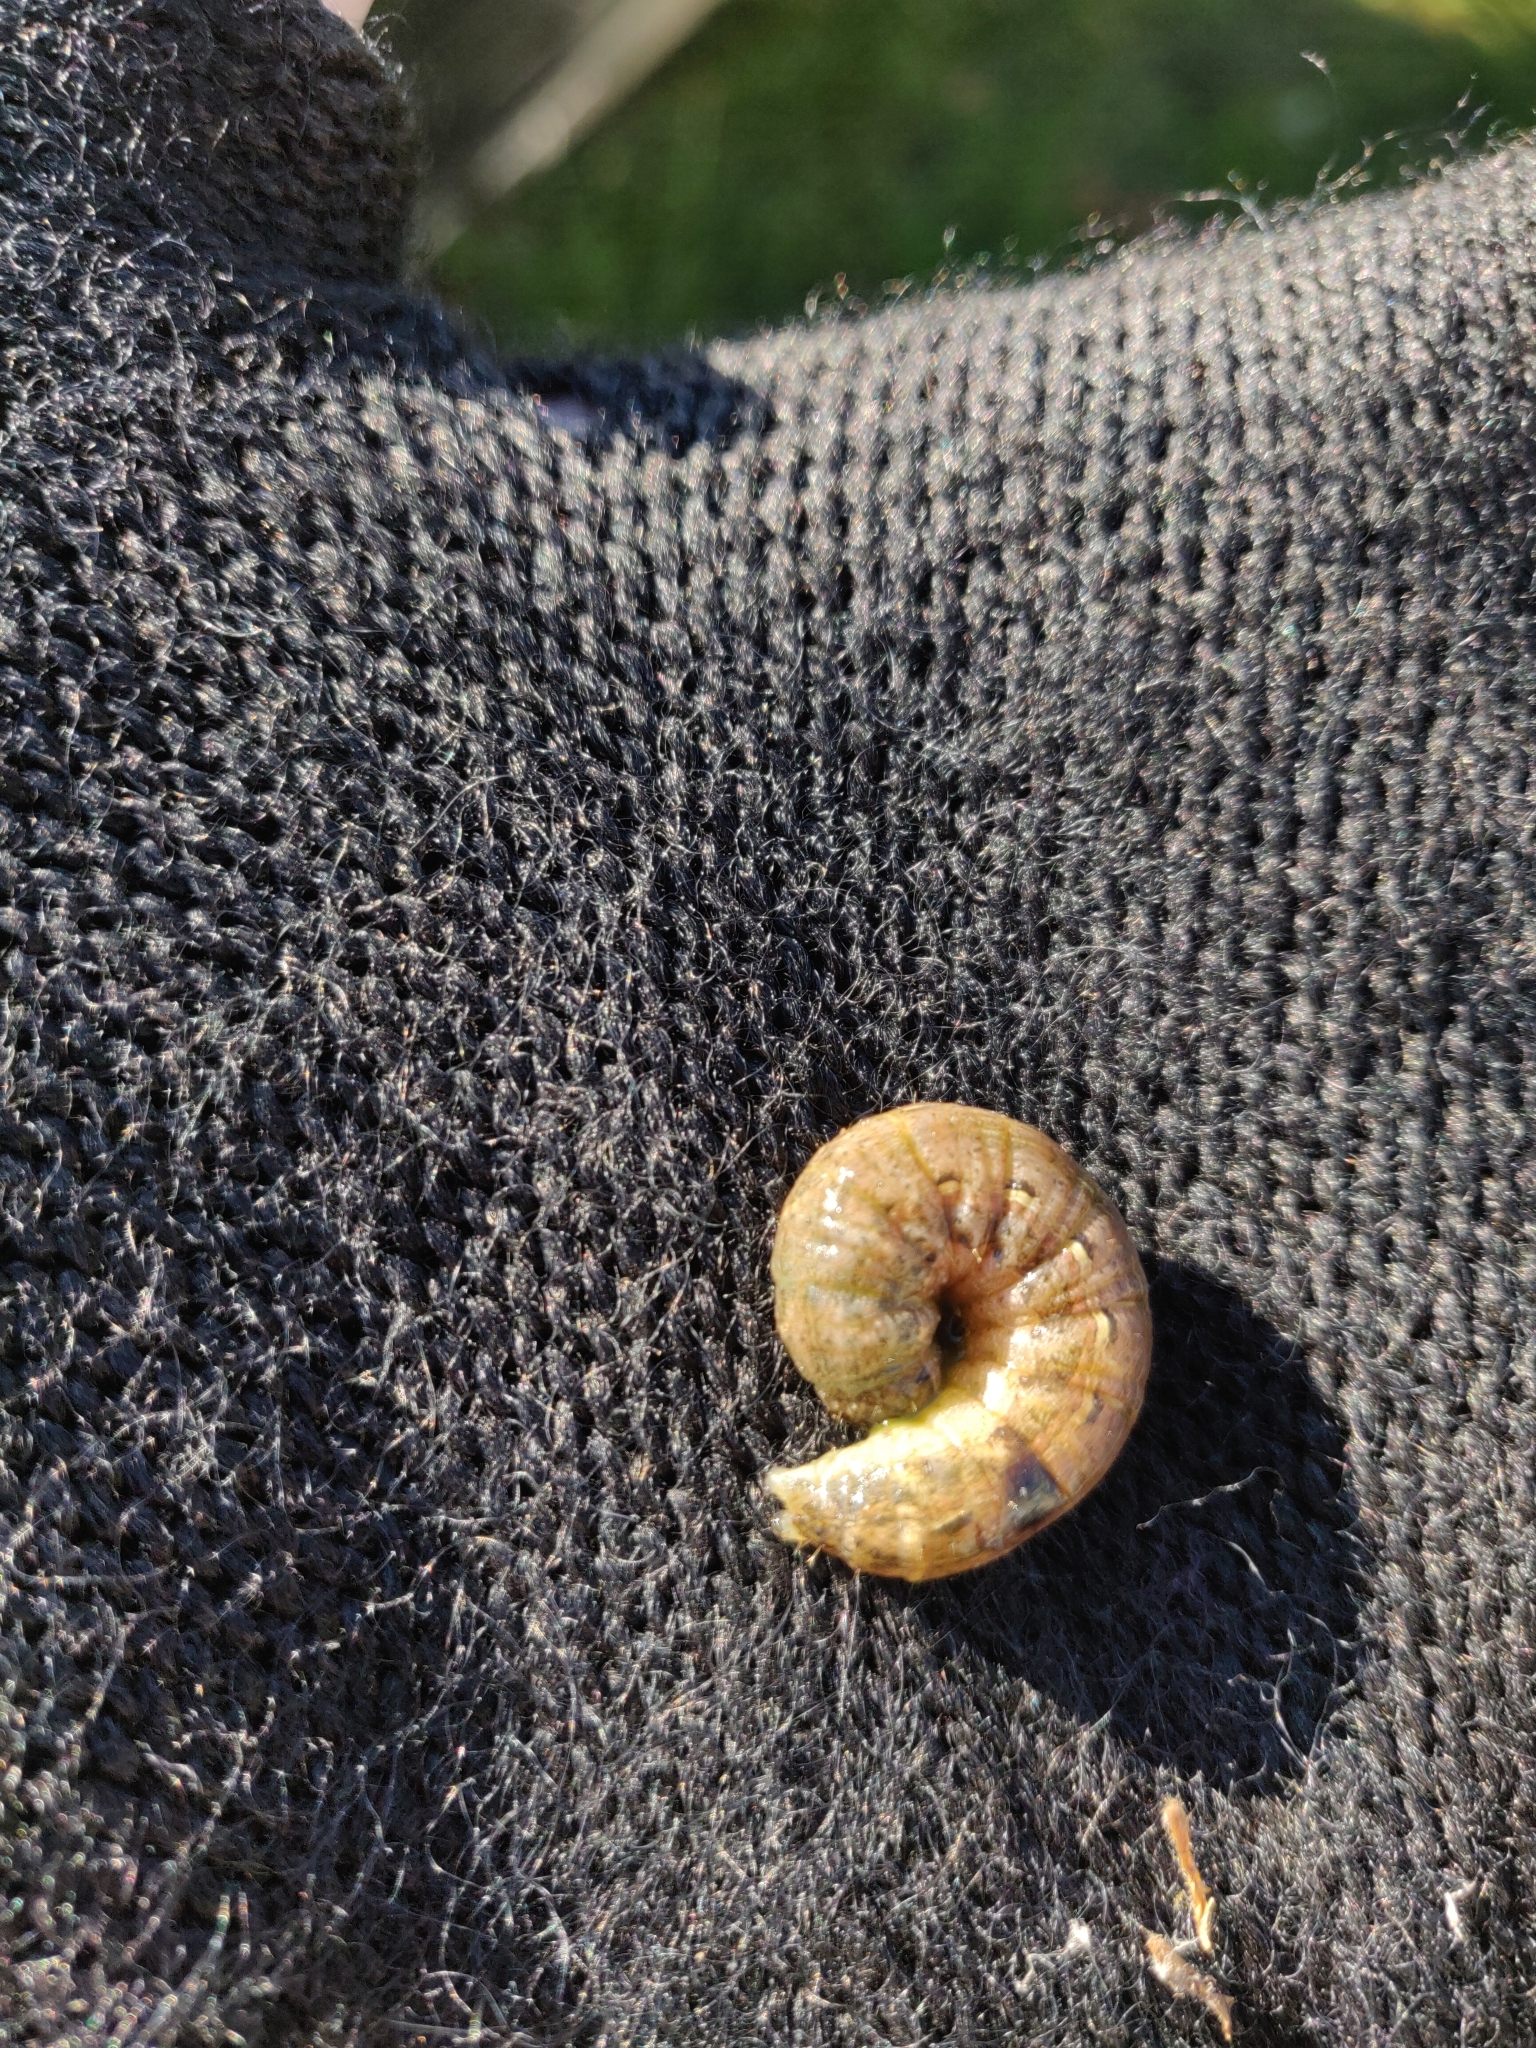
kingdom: Animalia
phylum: Arthropoda
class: Insecta
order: Lepidoptera
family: Noctuidae
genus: Noctua
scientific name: Noctua pronuba
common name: Large yellow underwing
